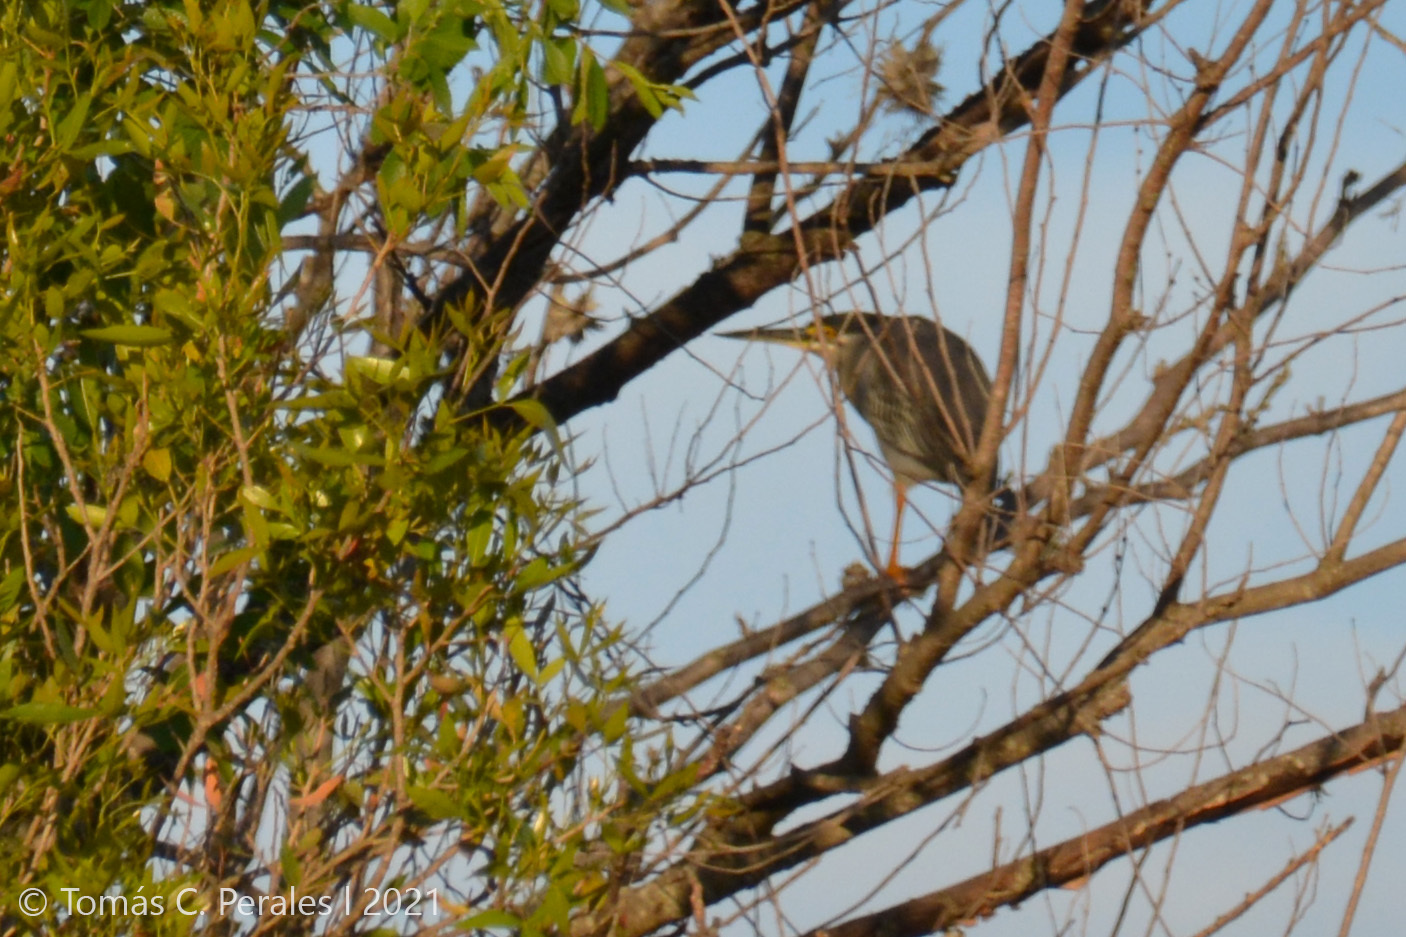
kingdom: Animalia
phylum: Chordata
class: Aves
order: Pelecaniformes
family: Ardeidae
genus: Butorides
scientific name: Butorides striata
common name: Striated heron
